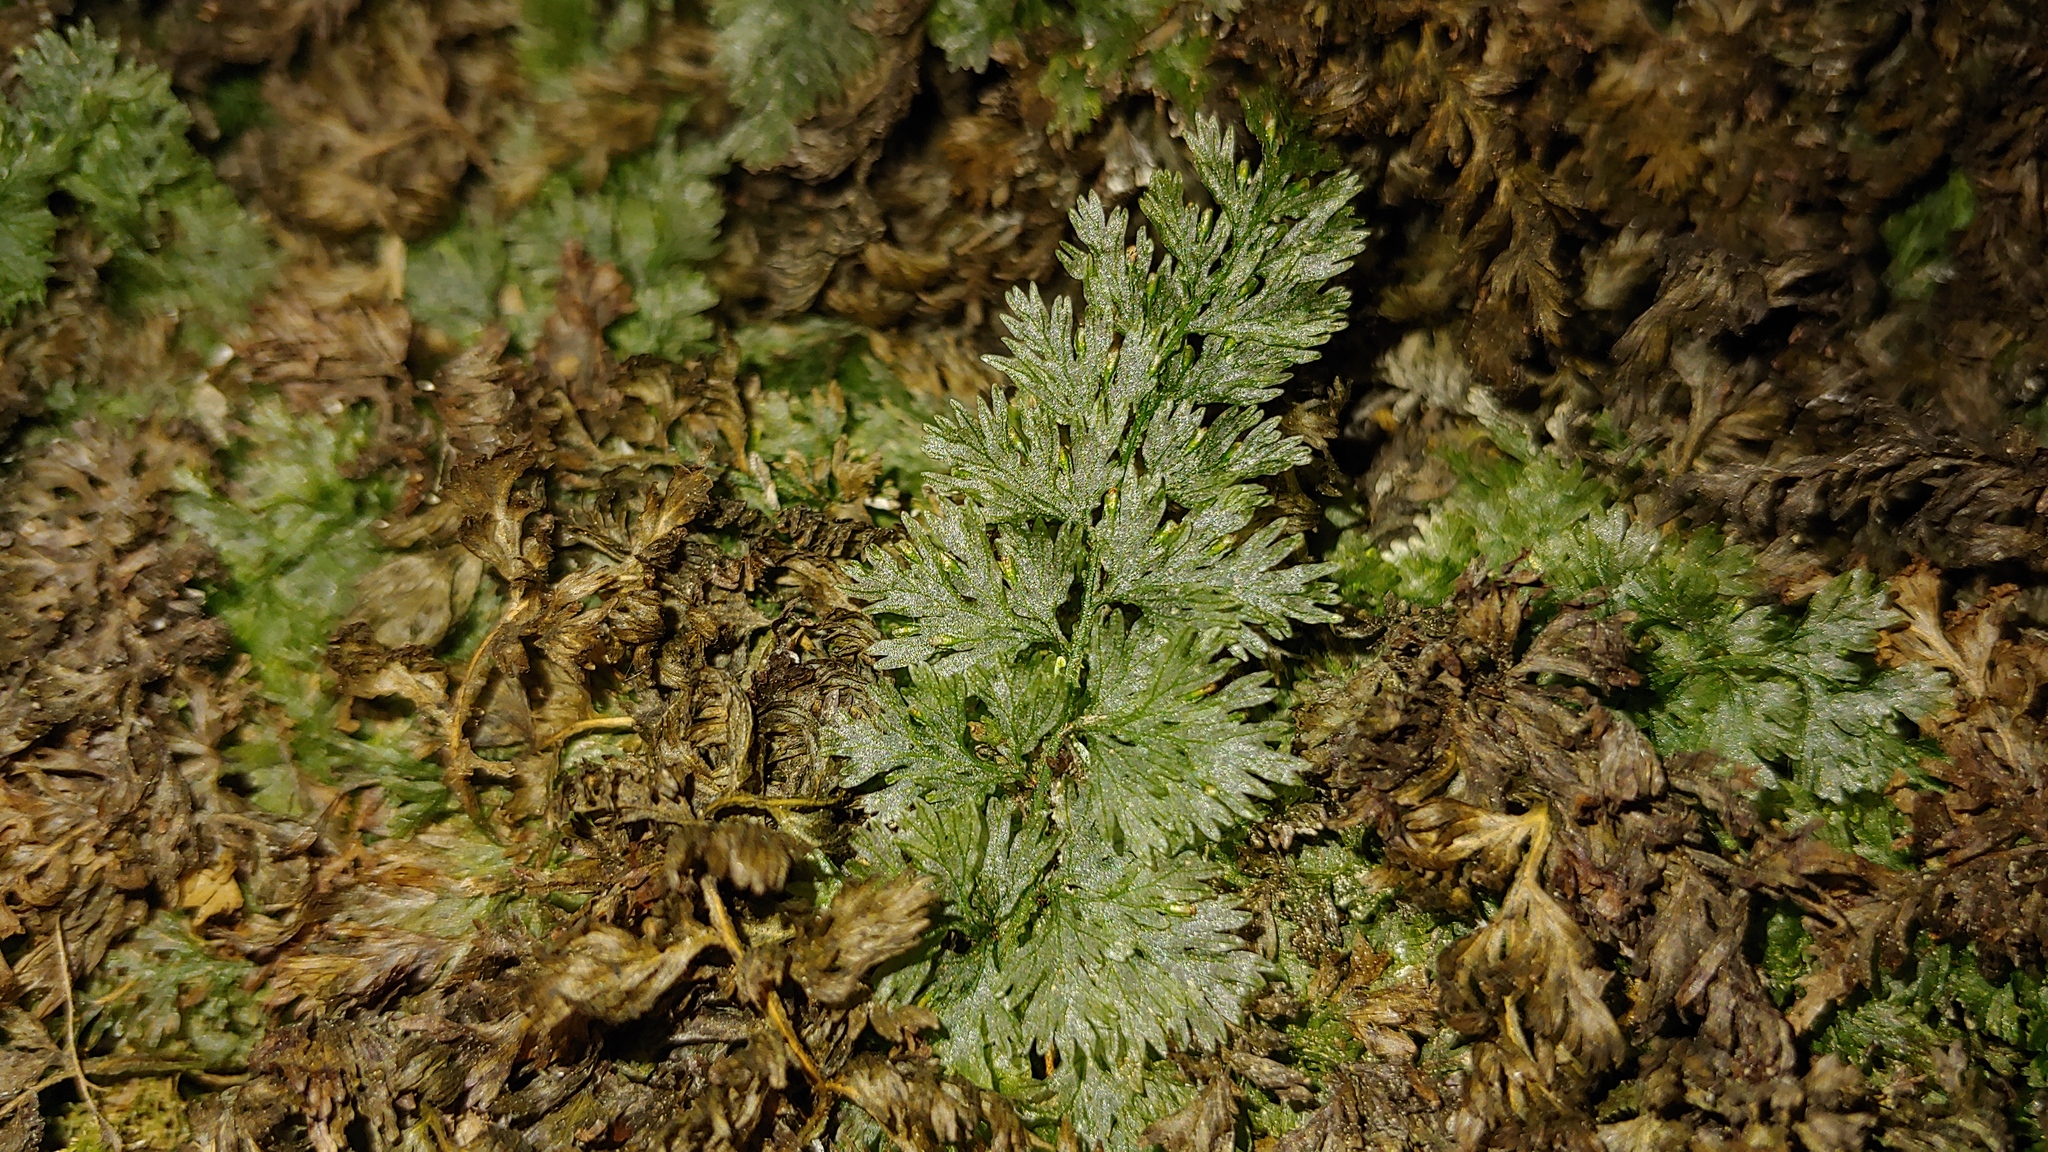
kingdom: Plantae
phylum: Tracheophyta
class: Polypodiopsida
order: Hymenophyllales
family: Hymenophyllaceae
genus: Vandenboschia
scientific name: Vandenboschia boschiana
